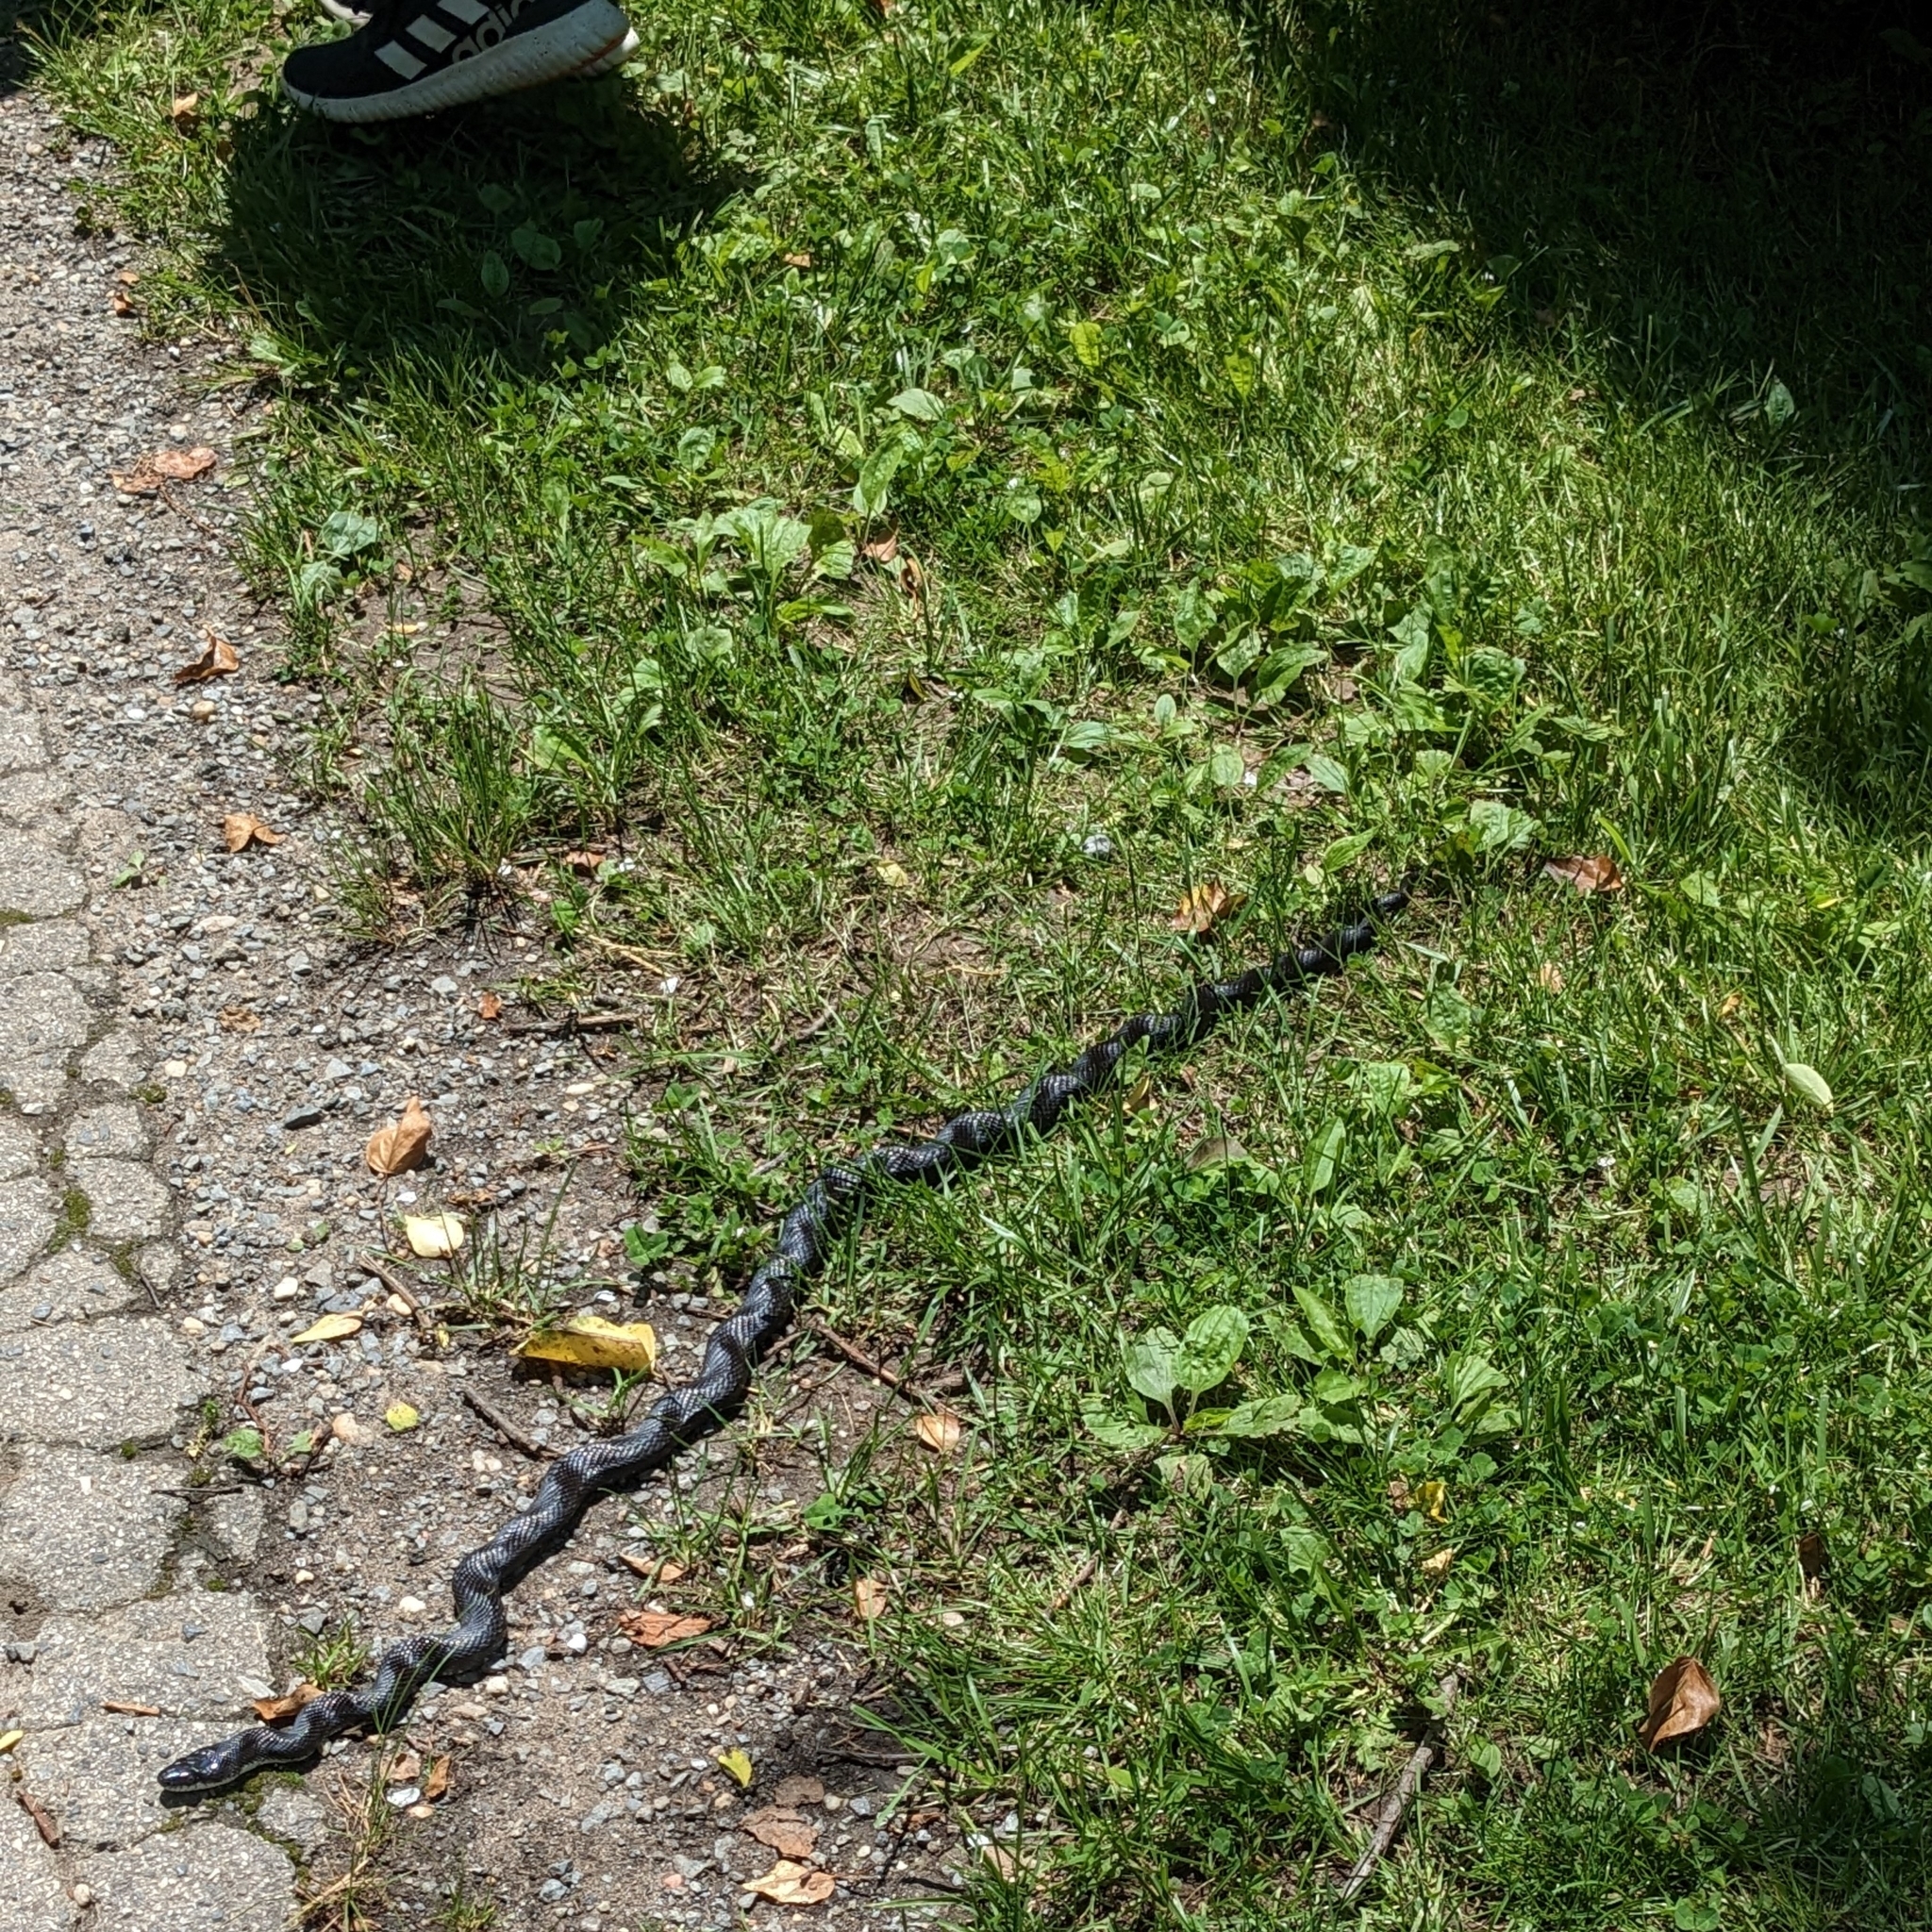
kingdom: Animalia
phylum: Chordata
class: Squamata
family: Colubridae
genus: Pantherophis
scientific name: Pantherophis
